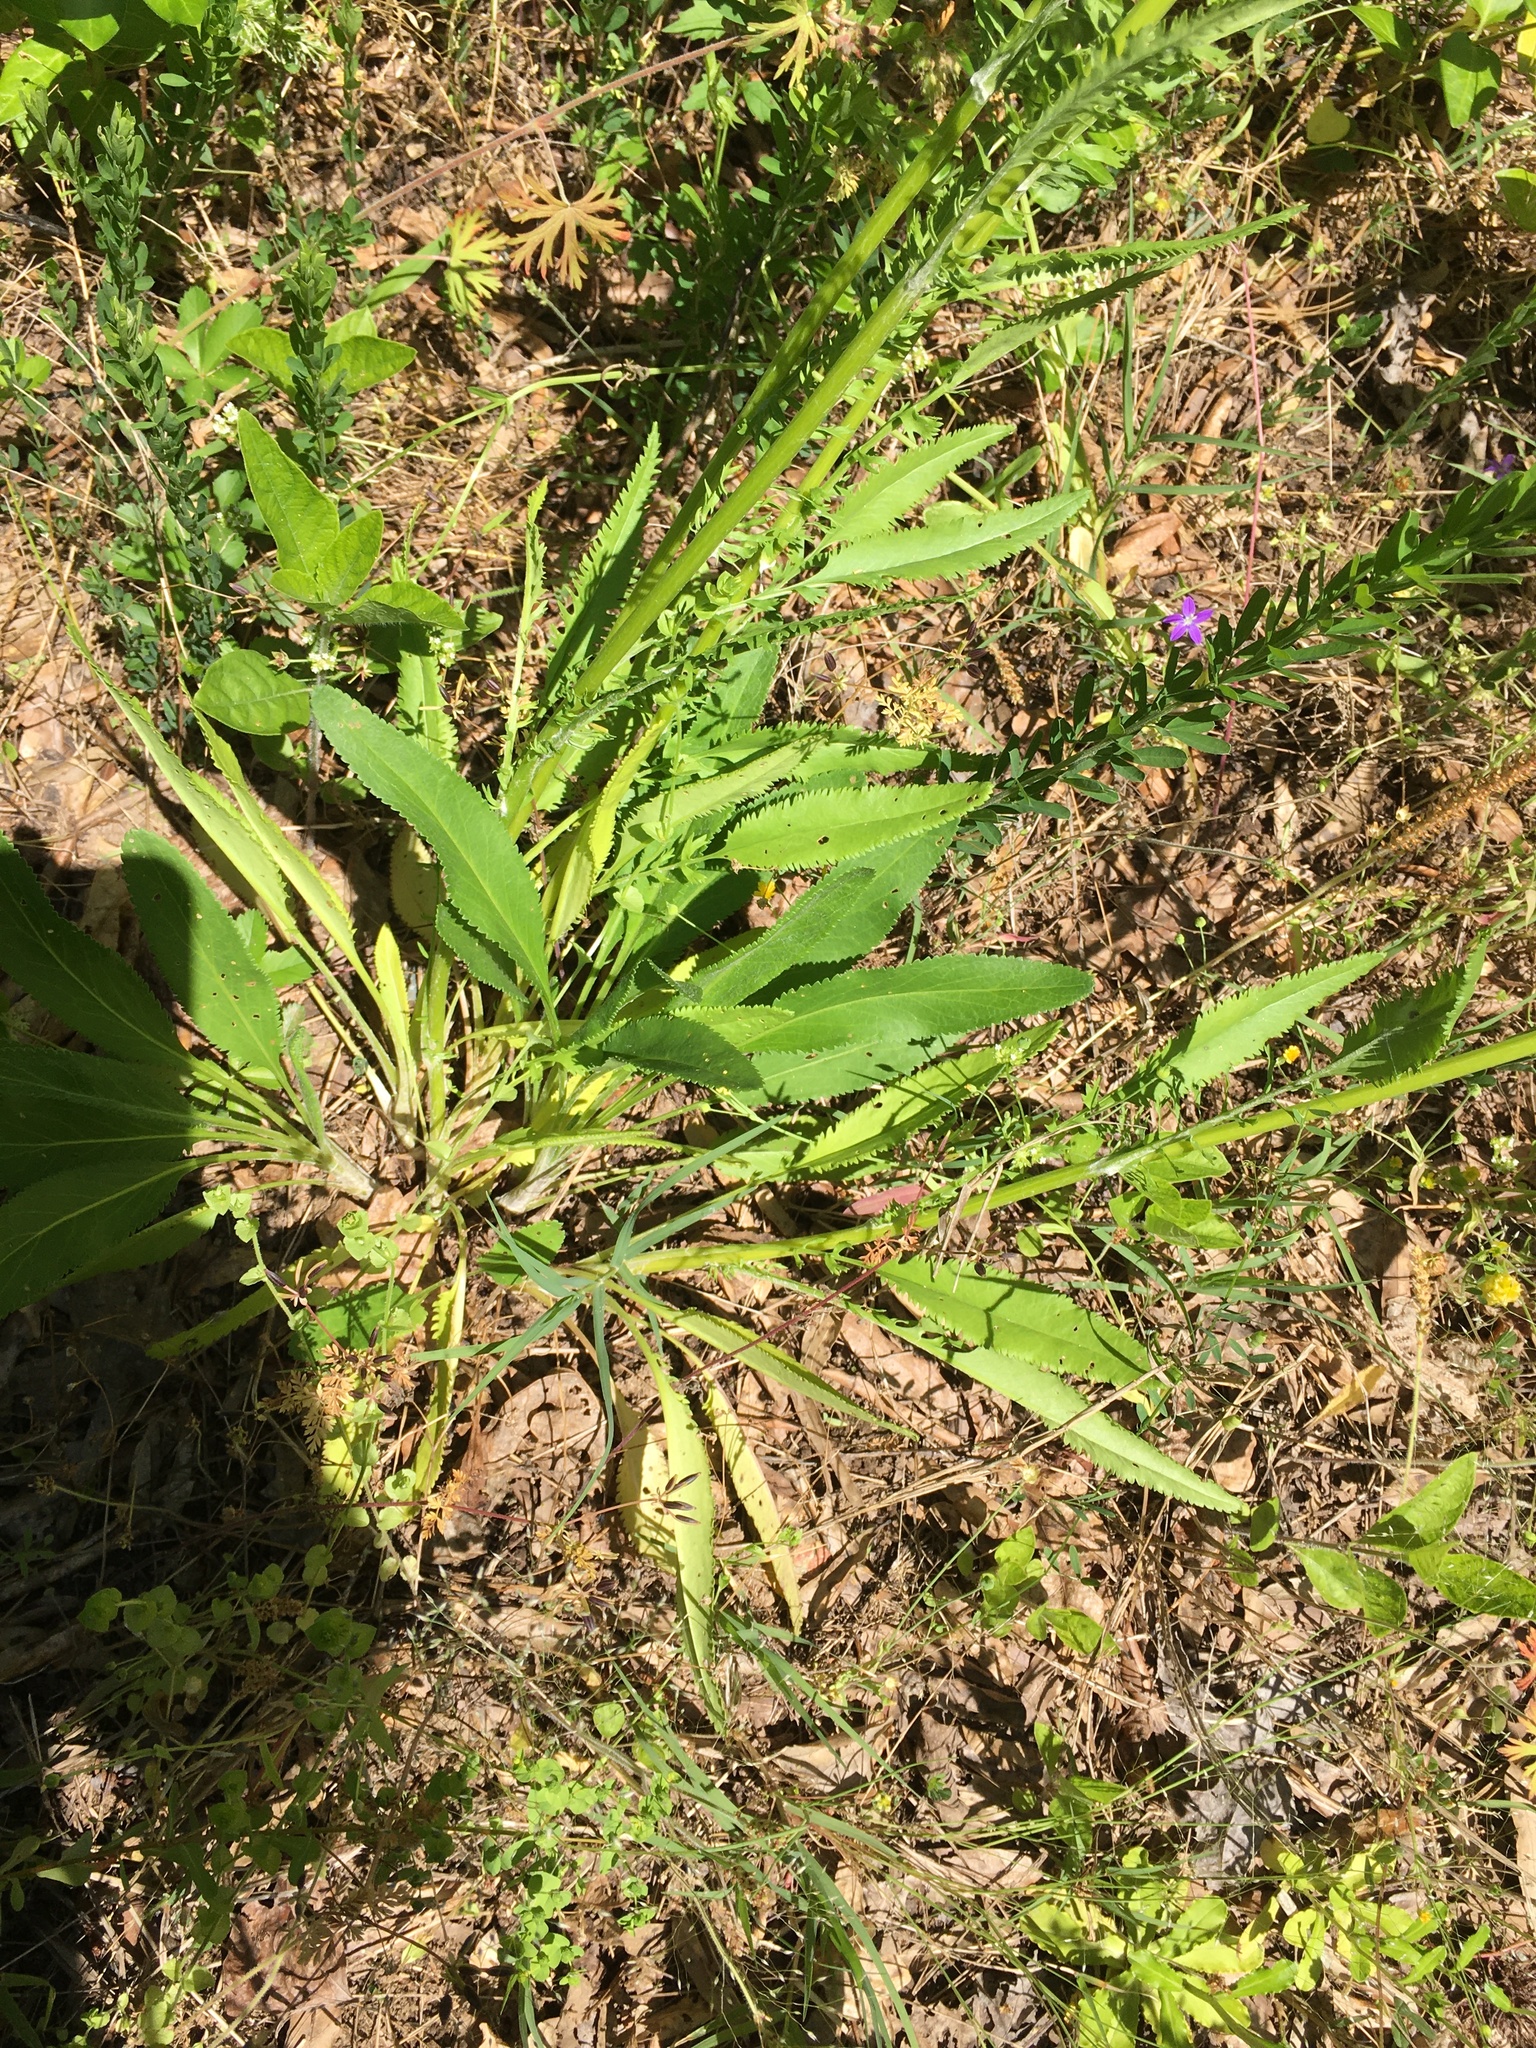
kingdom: Plantae
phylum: Tracheophyta
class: Magnoliopsida
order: Asterales
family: Asteraceae
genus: Packera
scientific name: Packera anonyma
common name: Small ragwort
